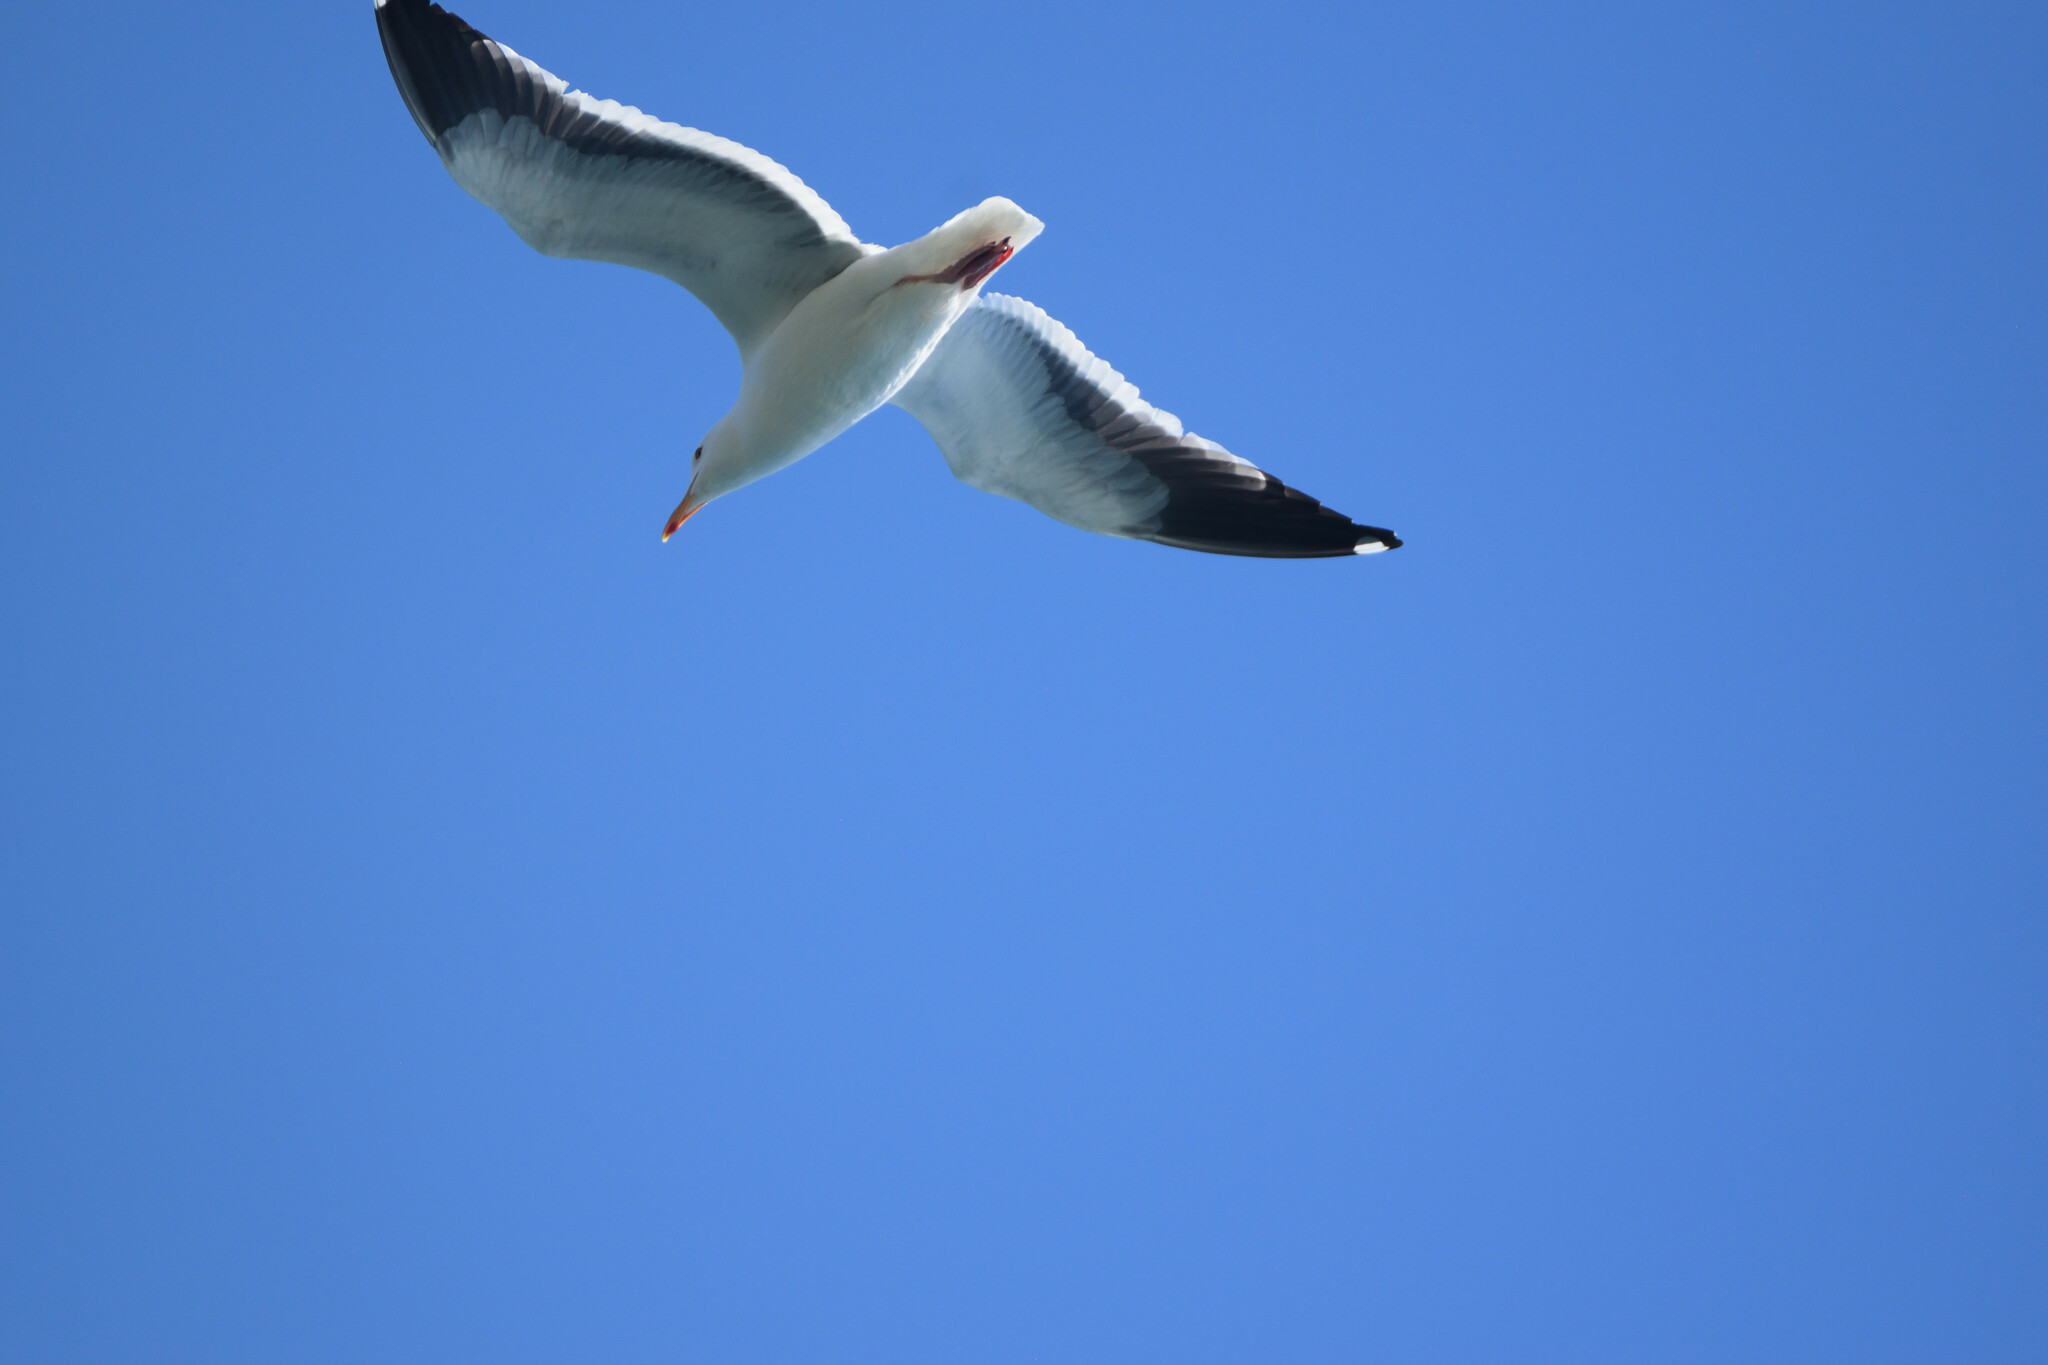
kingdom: Animalia
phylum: Chordata
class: Aves
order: Charadriiformes
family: Laridae
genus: Larus
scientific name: Larus occidentalis
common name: Western gull
